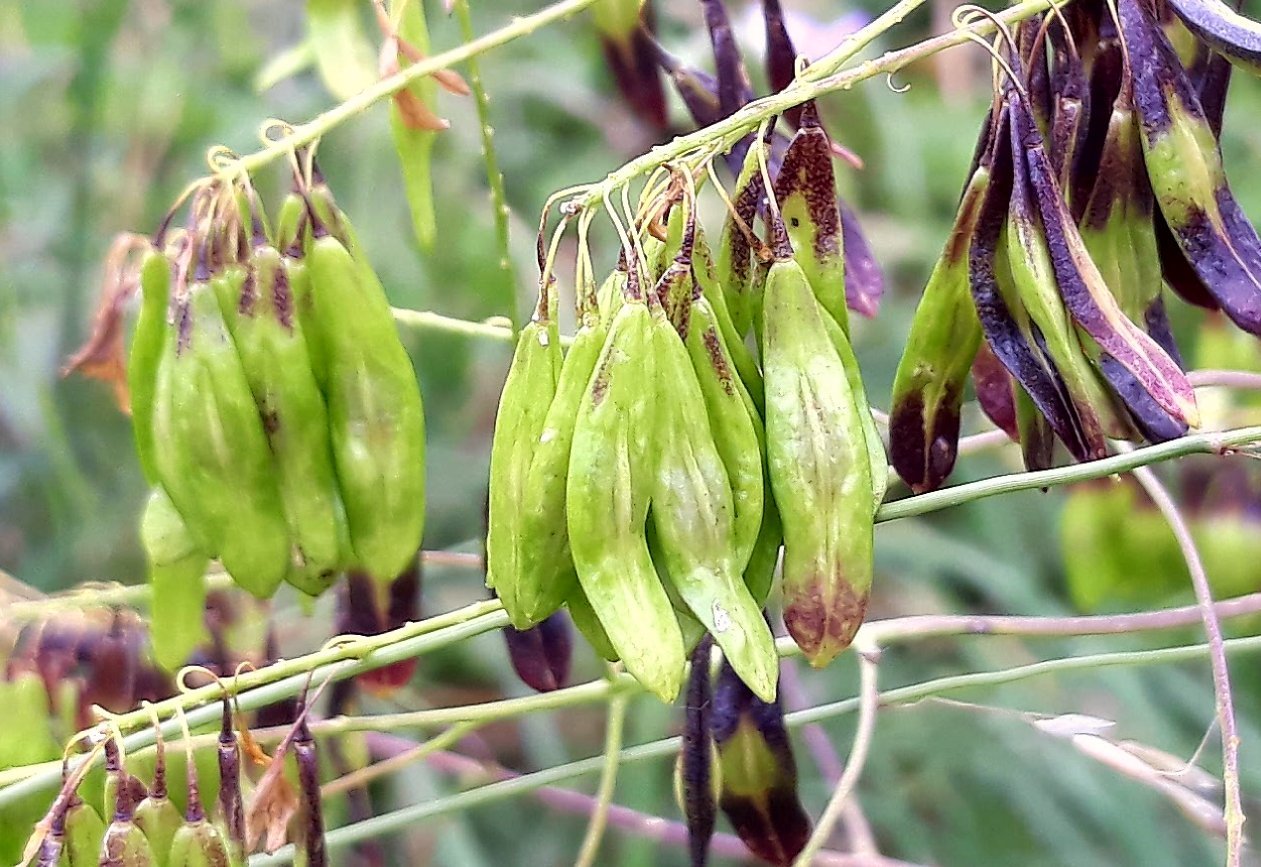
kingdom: Plantae
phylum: Tracheophyta
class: Magnoliopsida
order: Brassicales
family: Brassicaceae
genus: Isatis
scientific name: Isatis tinctoria
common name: Woad
